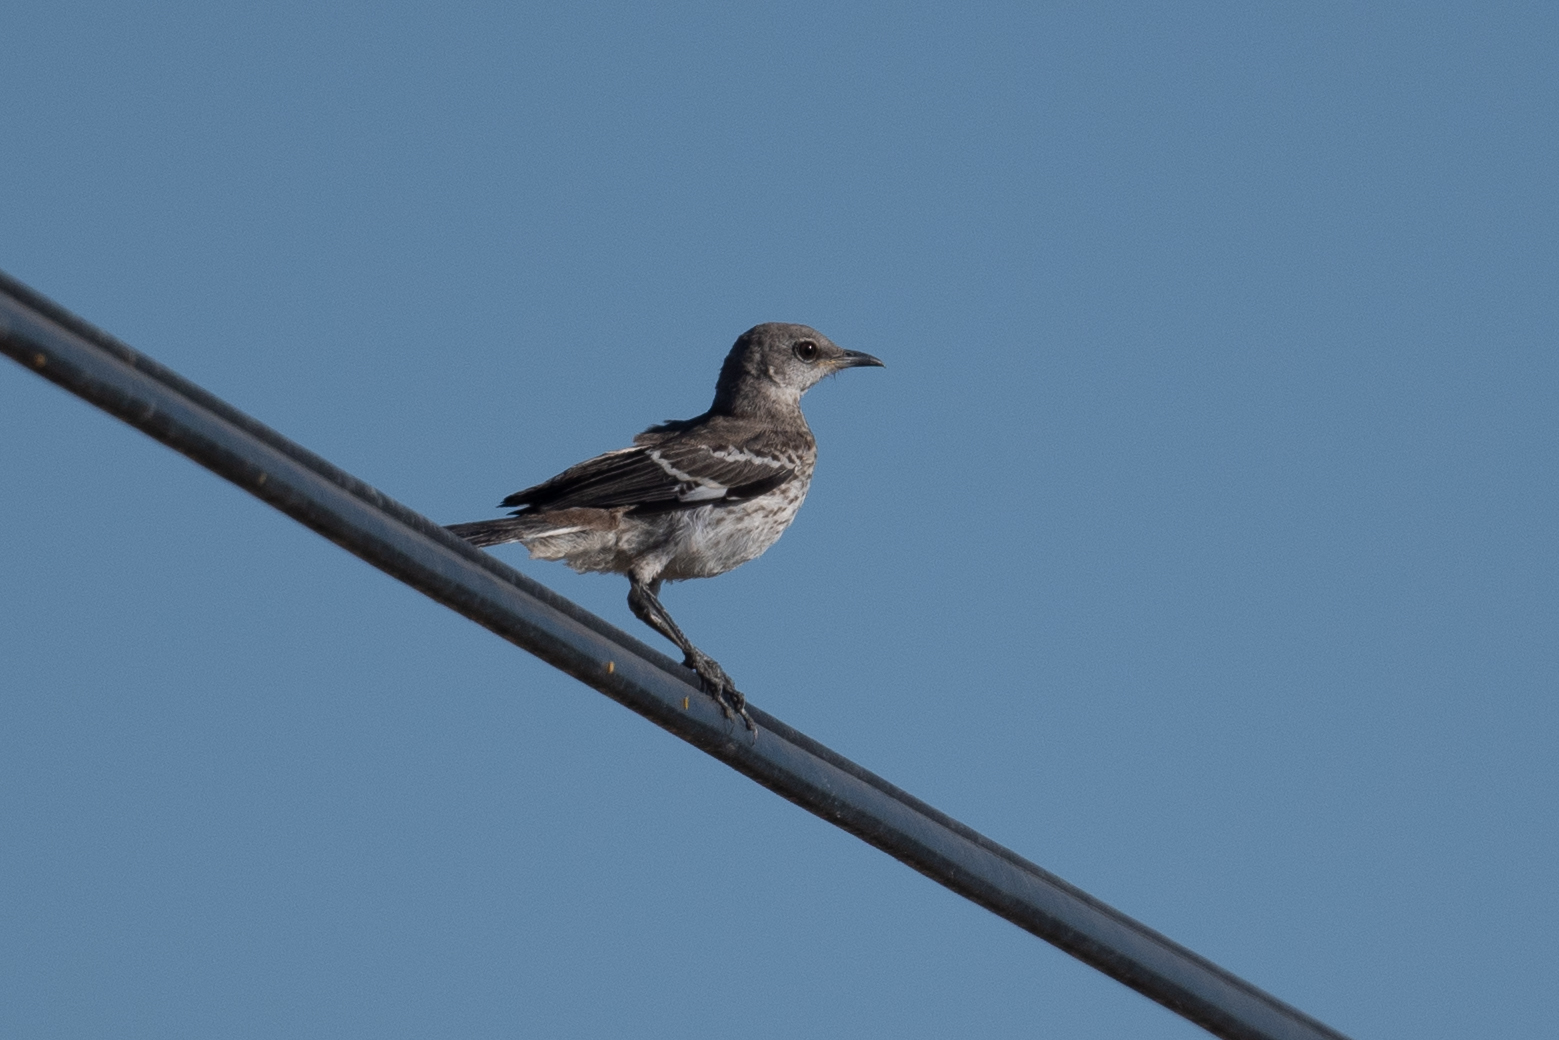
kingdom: Animalia
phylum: Chordata
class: Aves
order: Passeriformes
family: Mimidae
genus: Mimus
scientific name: Mimus polyglottos
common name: Northern mockingbird
